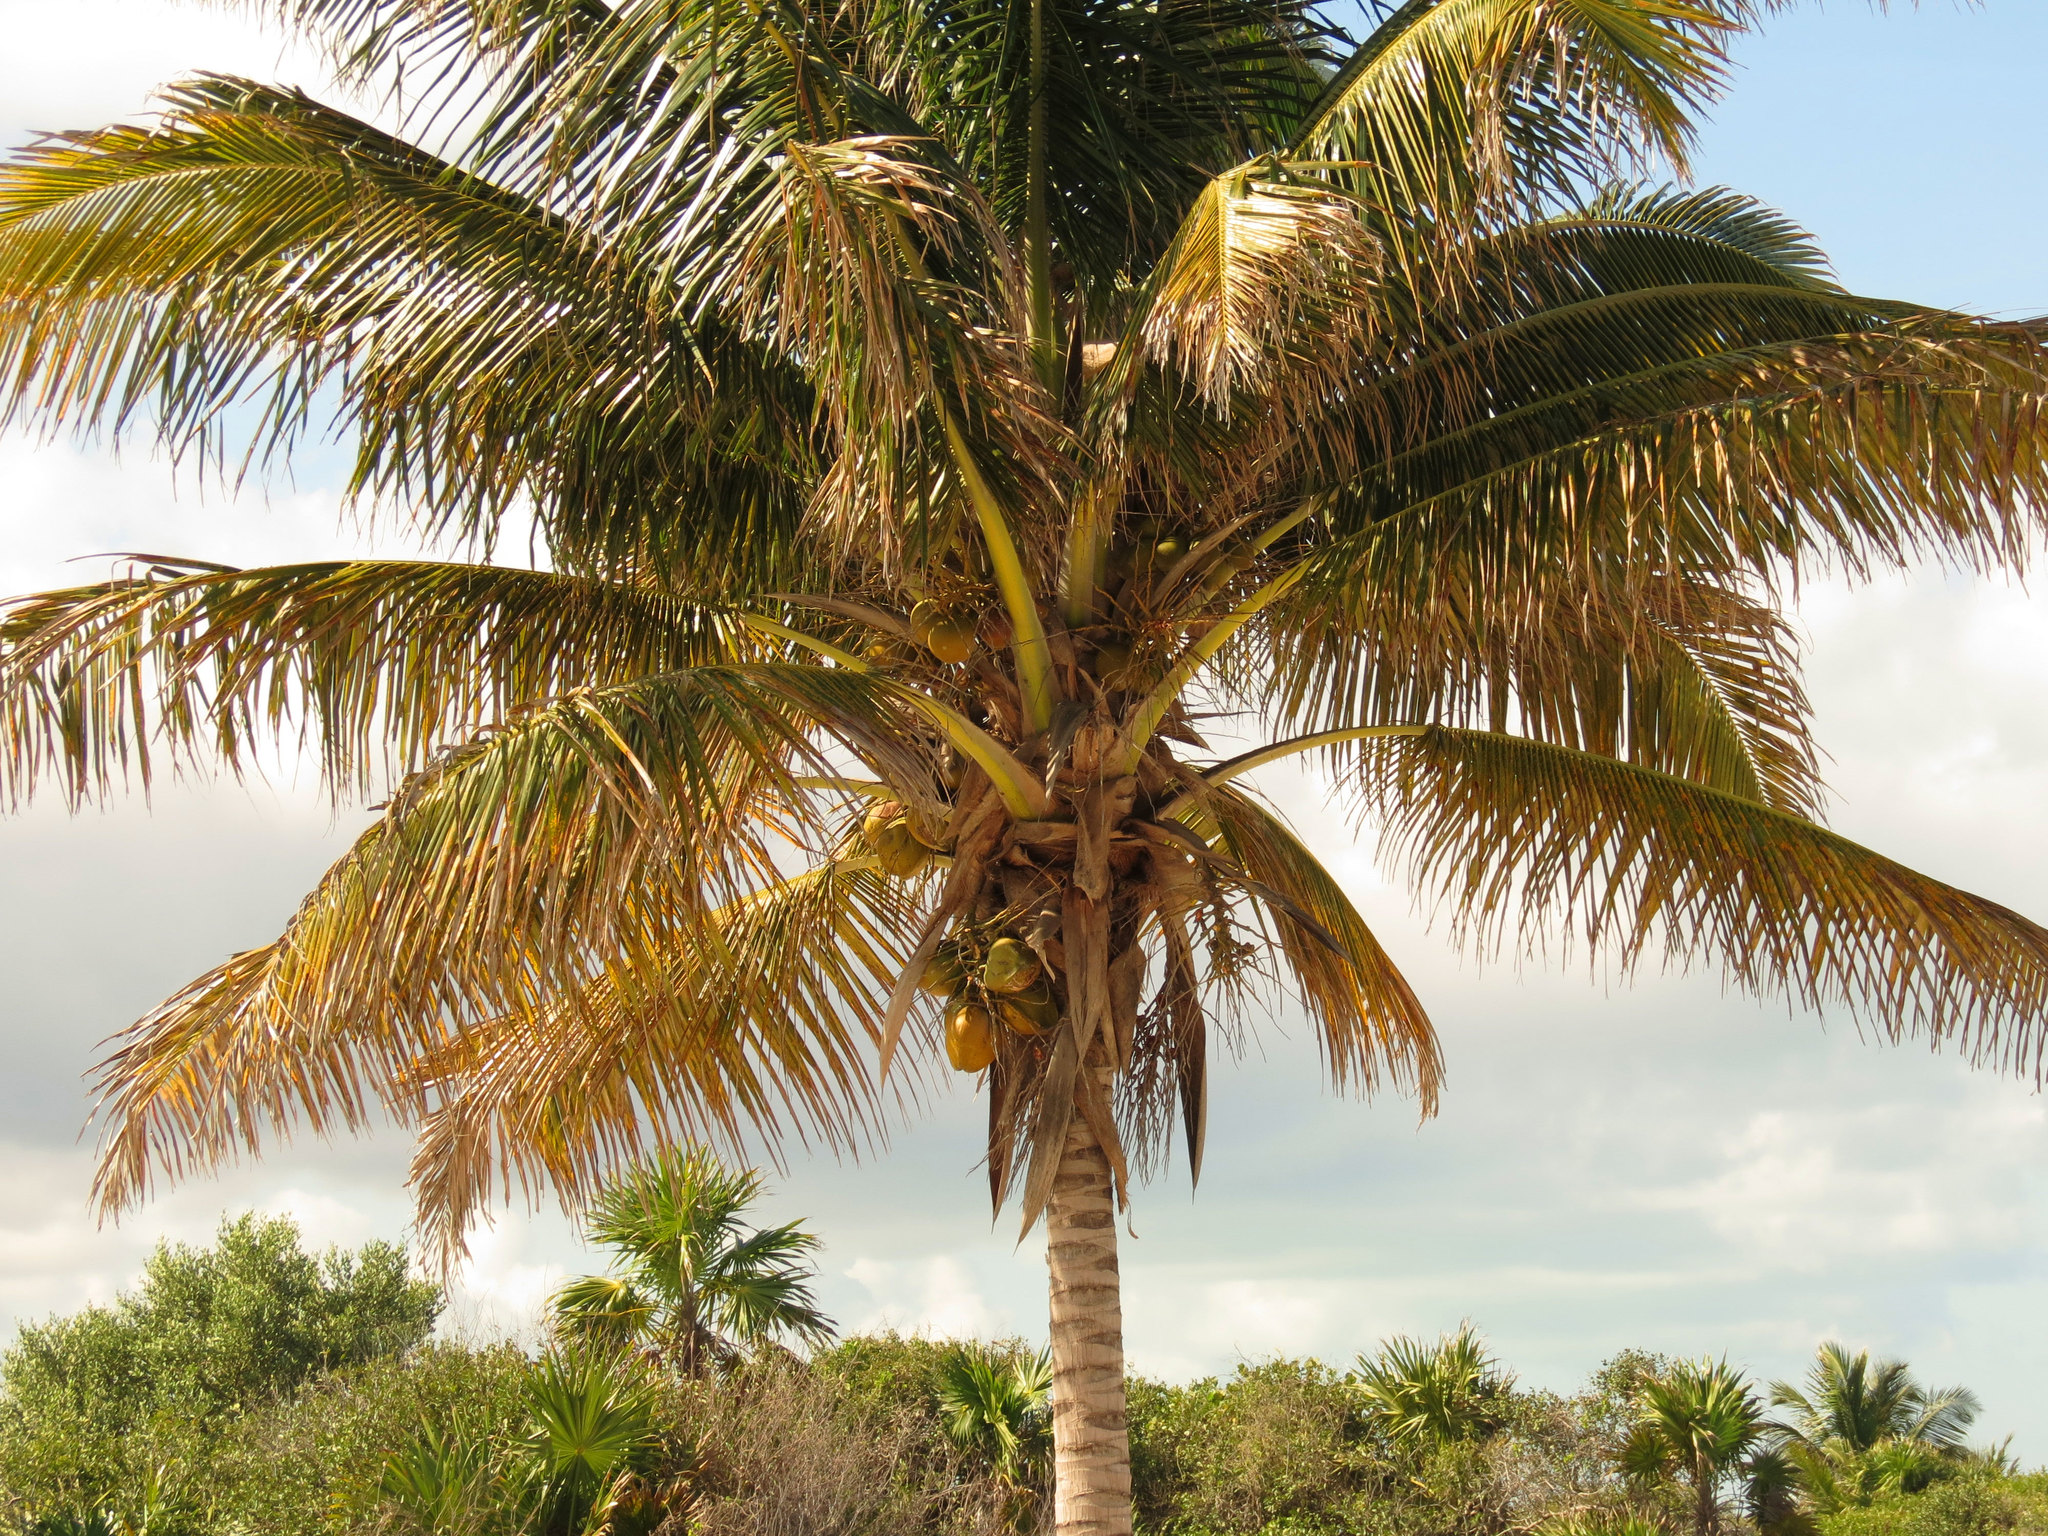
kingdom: Plantae
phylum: Tracheophyta
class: Liliopsida
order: Arecales
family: Arecaceae
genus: Cocos
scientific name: Cocos nucifera
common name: Coconut palm
